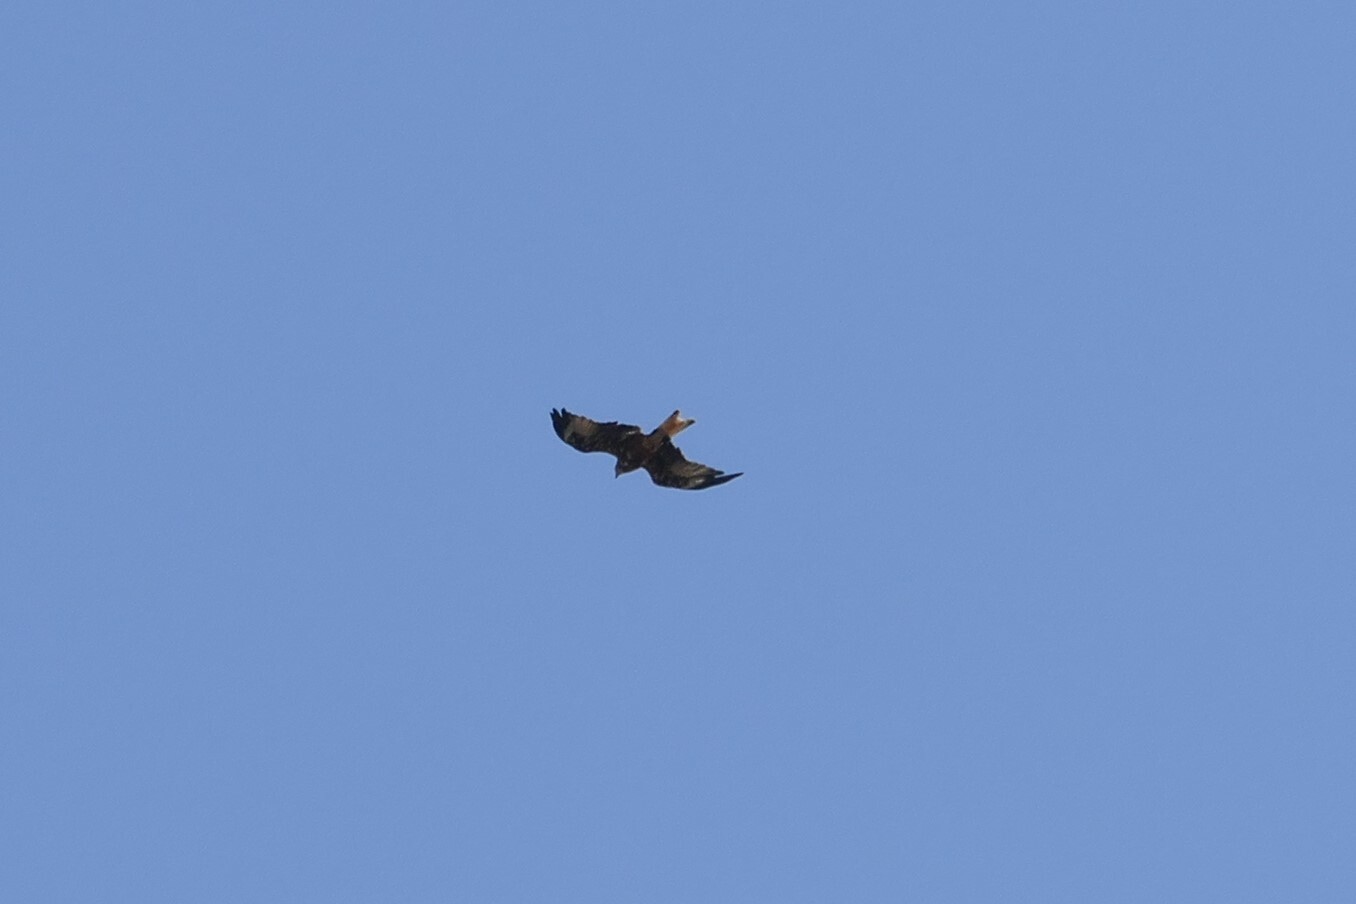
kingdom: Animalia
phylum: Chordata
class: Aves
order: Accipitriformes
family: Accipitridae
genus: Milvus
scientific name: Milvus milvus
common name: Red kite
